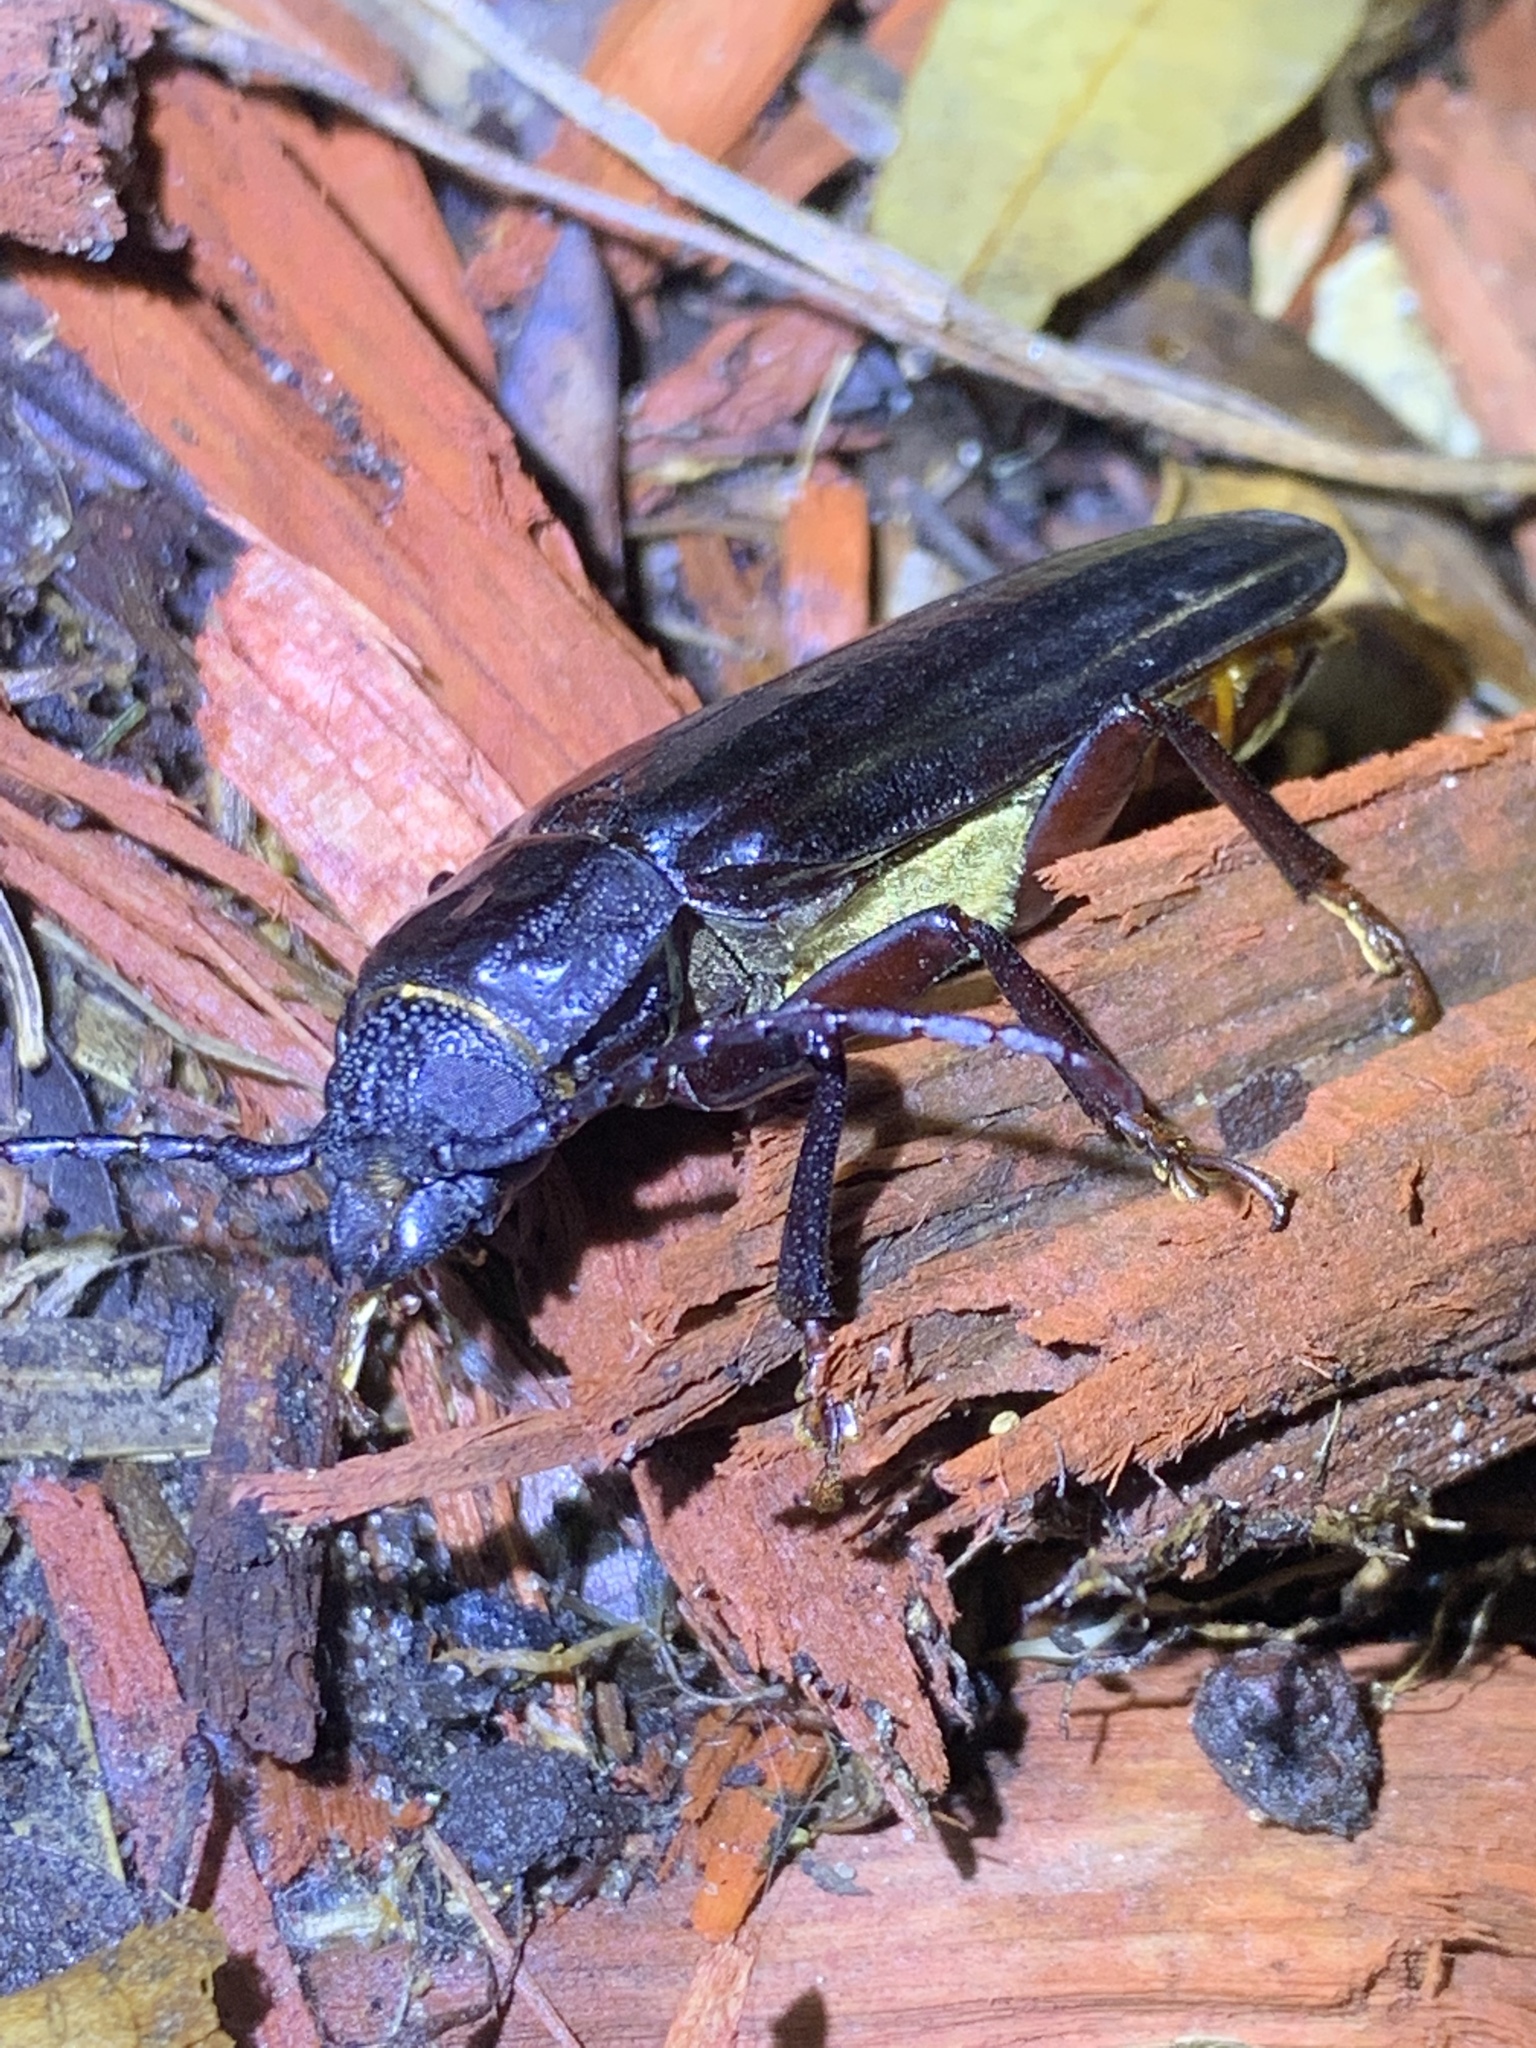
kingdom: Animalia
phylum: Arthropoda
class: Insecta
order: Coleoptera
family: Cerambycidae
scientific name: Cerambycidae
